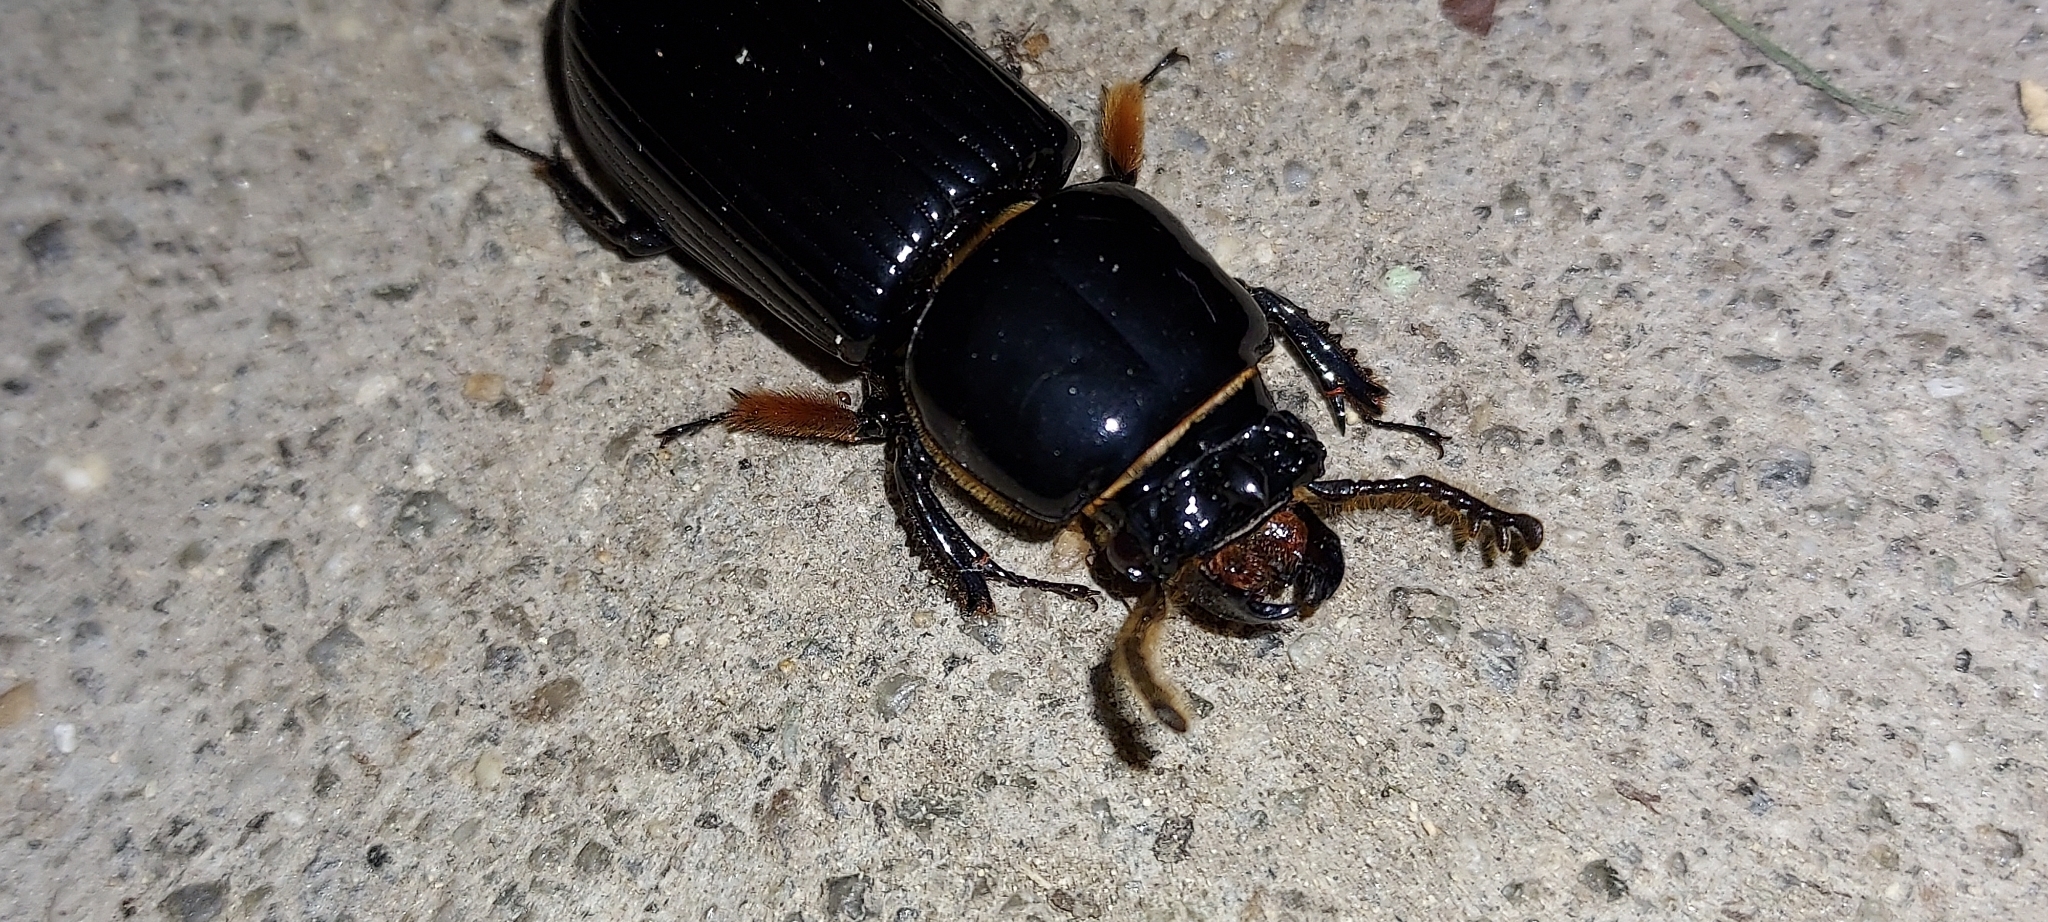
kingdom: Animalia
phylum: Arthropoda
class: Insecta
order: Coleoptera
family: Passalidae
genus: Odontotaenius
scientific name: Odontotaenius disjunctus
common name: Patent leather beetle
